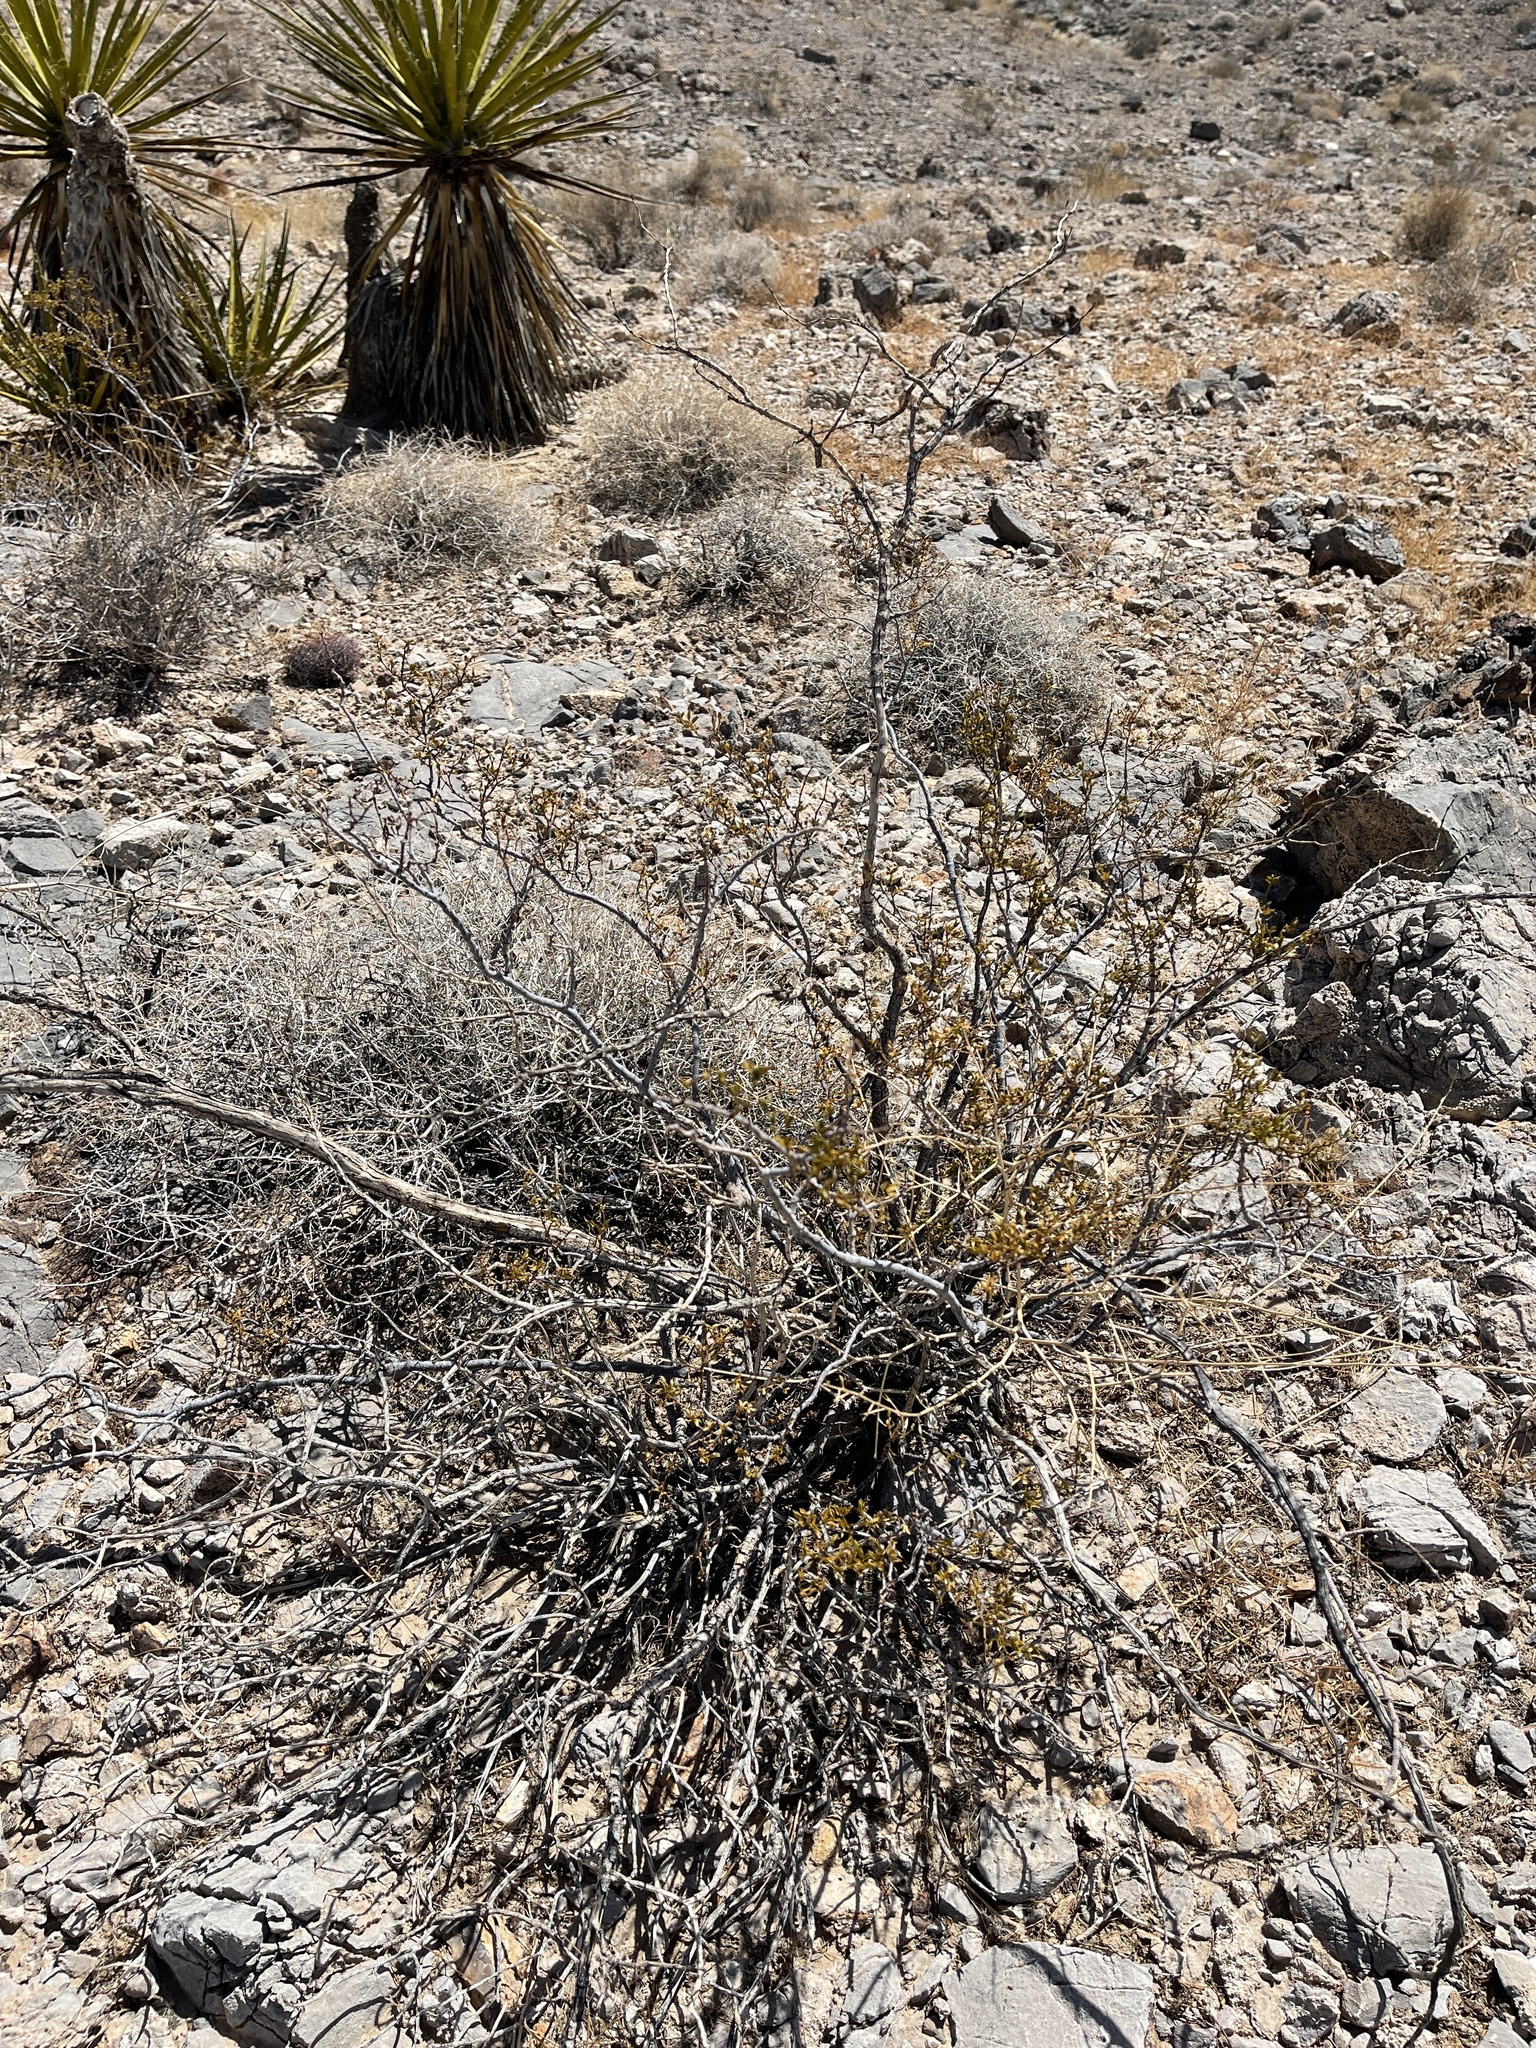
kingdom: Plantae
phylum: Tracheophyta
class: Magnoliopsida
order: Zygophyllales
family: Zygophyllaceae
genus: Larrea
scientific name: Larrea tridentata
